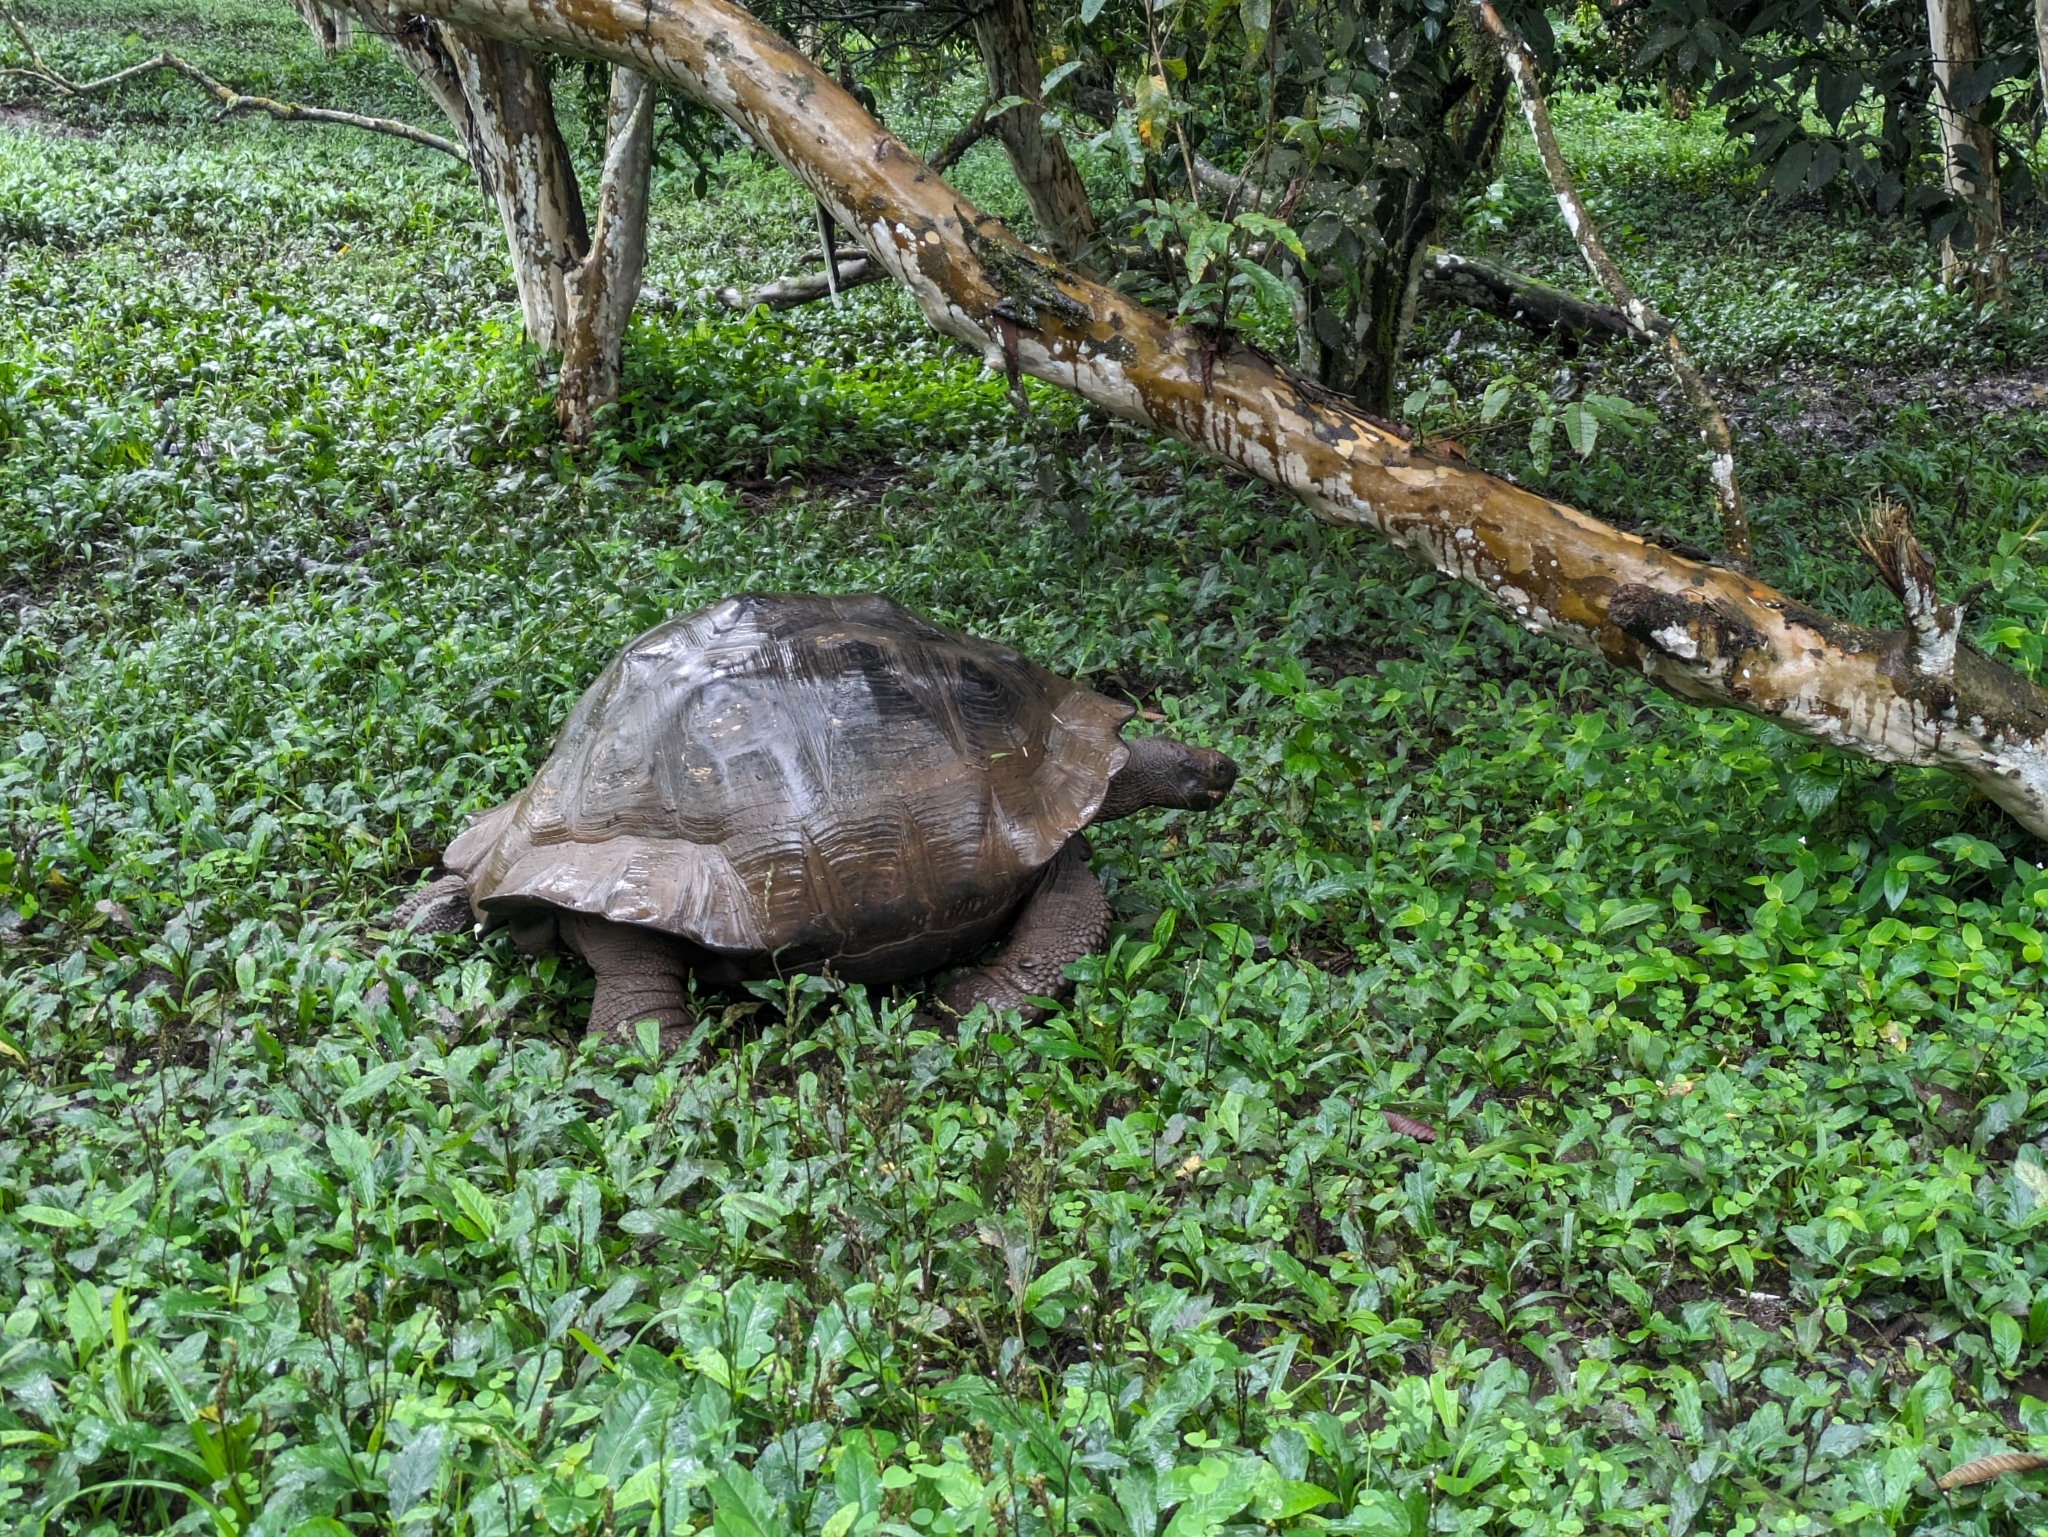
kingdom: Animalia
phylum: Chordata
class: Testudines
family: Testudinidae
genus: Chelonoidis
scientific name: Chelonoidis niger
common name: Charles island giant tortoise
